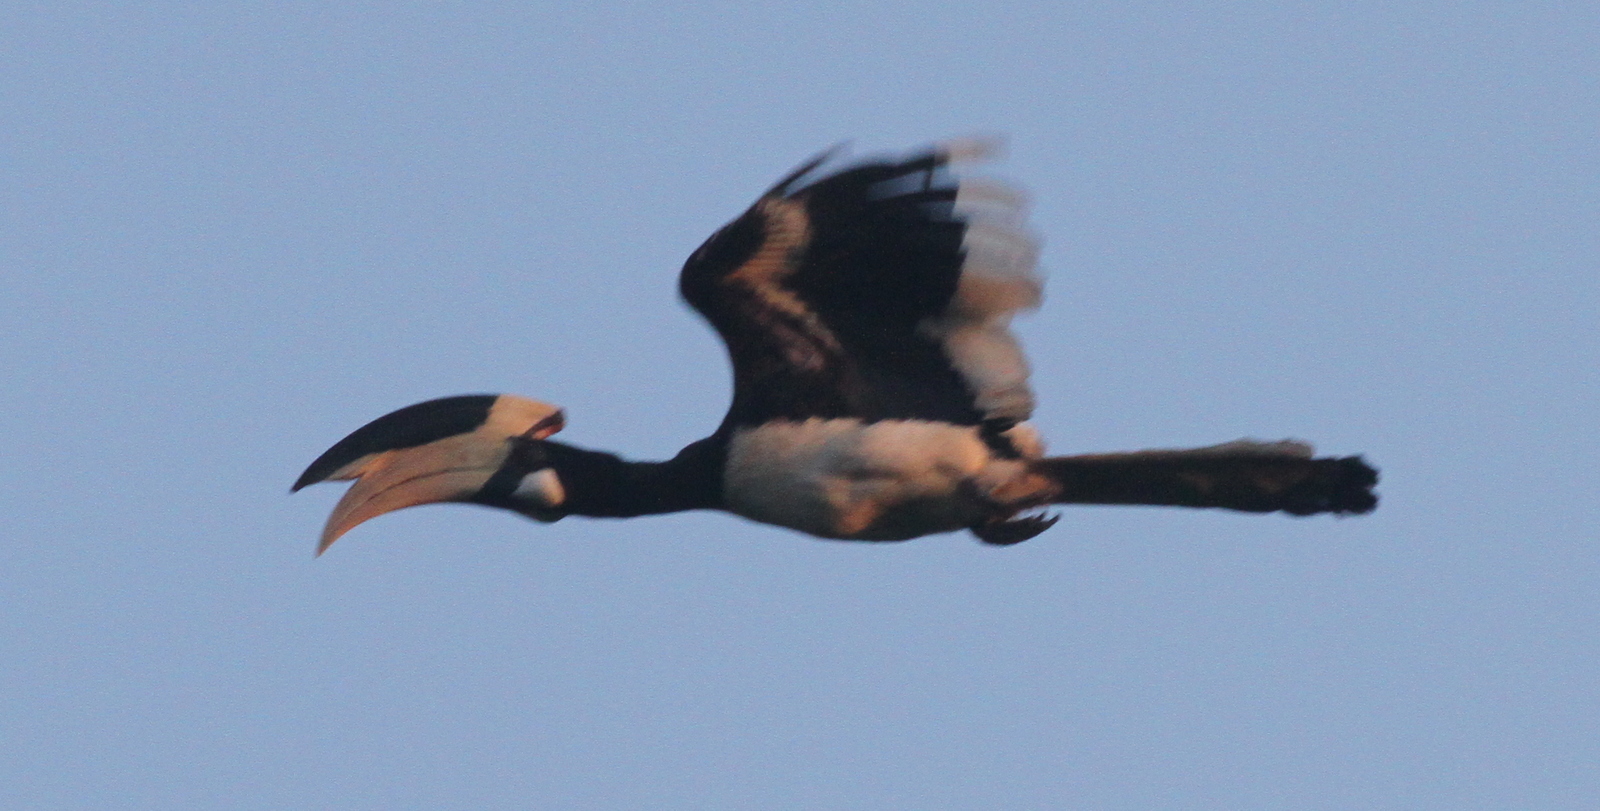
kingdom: Animalia
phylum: Chordata
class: Aves
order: Bucerotiformes
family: Bucerotidae
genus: Anthracoceros
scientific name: Anthracoceros coronatus
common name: Malabar pied hornbill
